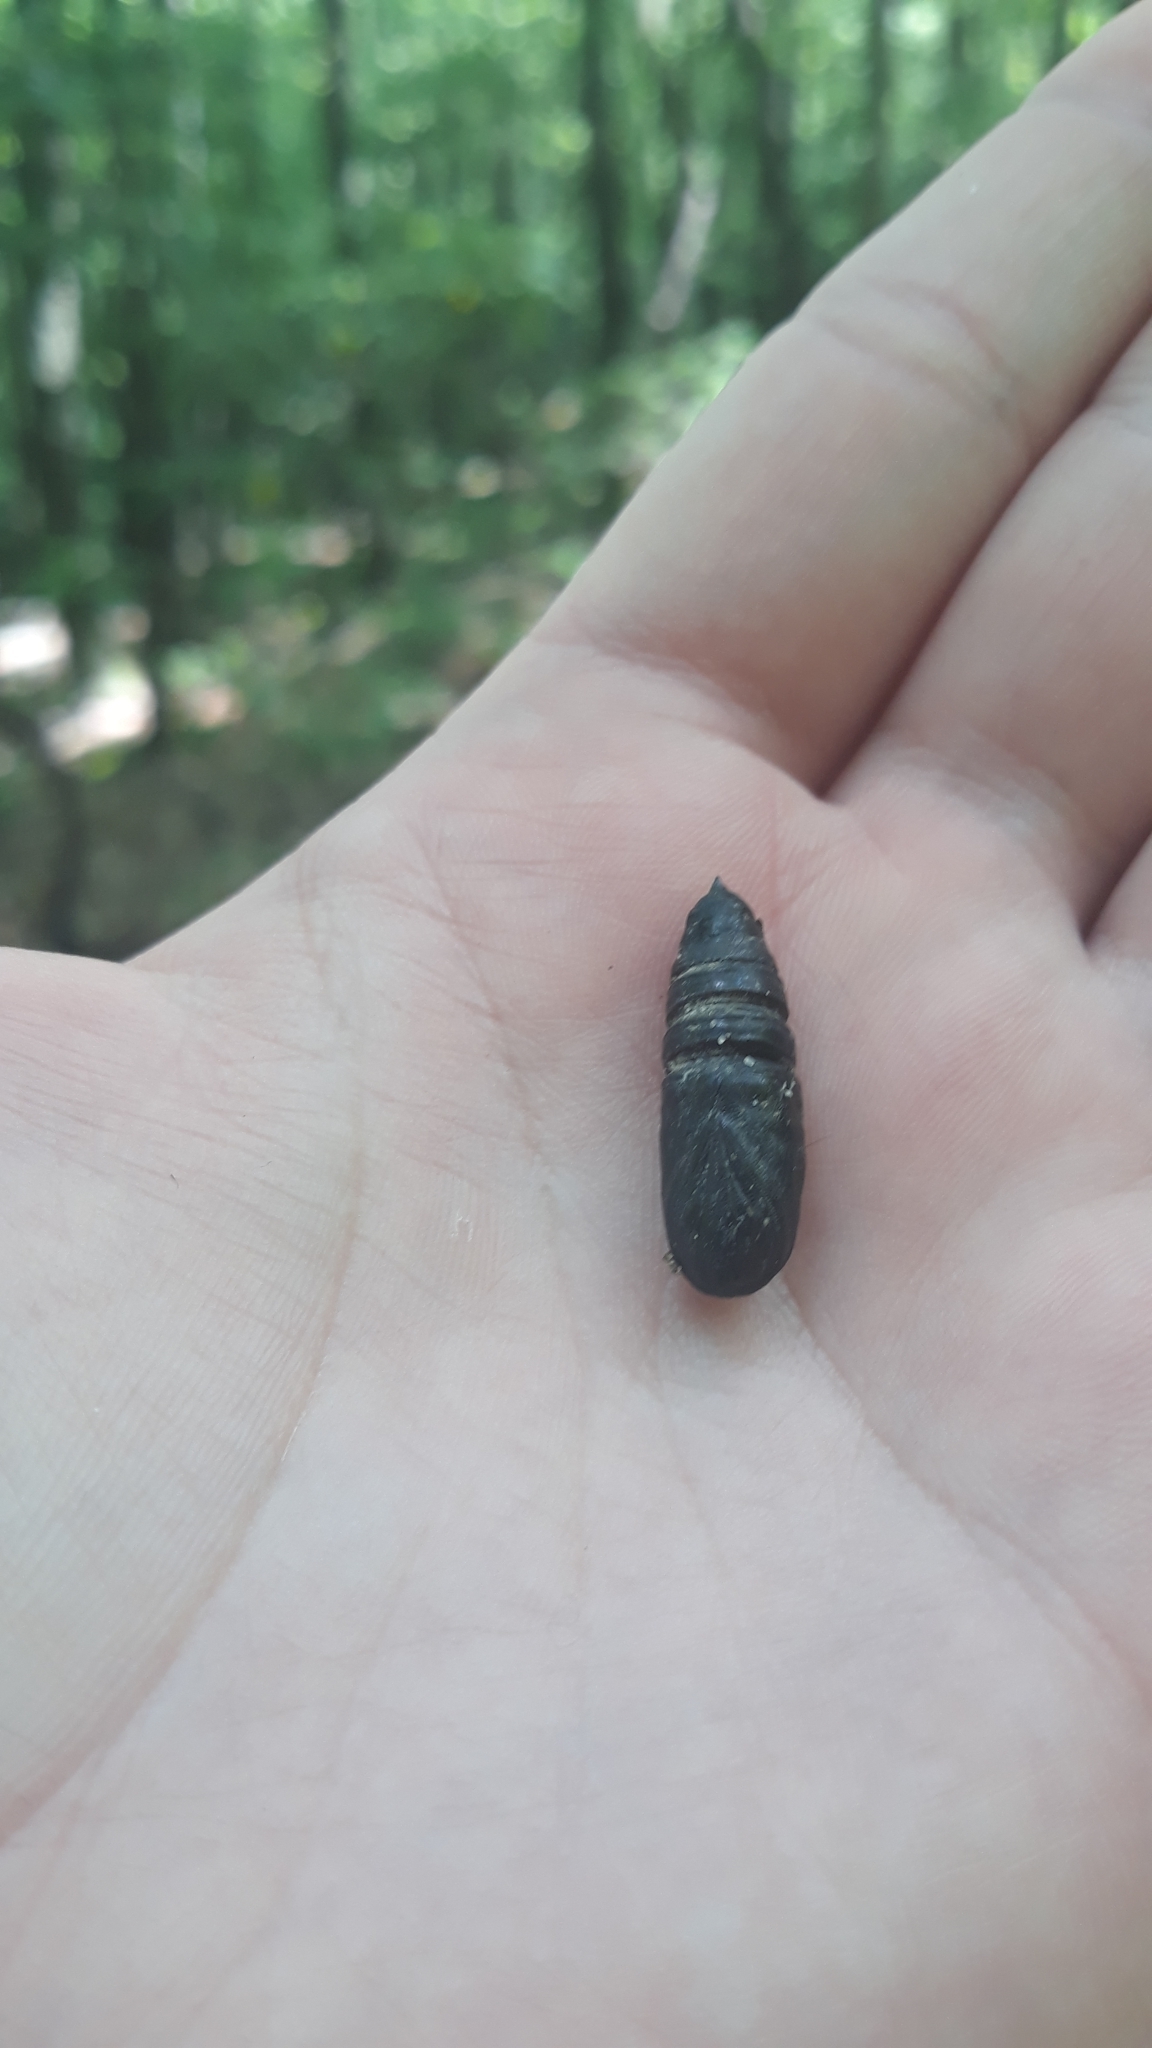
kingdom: Animalia
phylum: Arthropoda
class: Insecta
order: Lepidoptera
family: Erebidae
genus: Lymantria
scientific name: Lymantria dispar
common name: Gypsy moth
